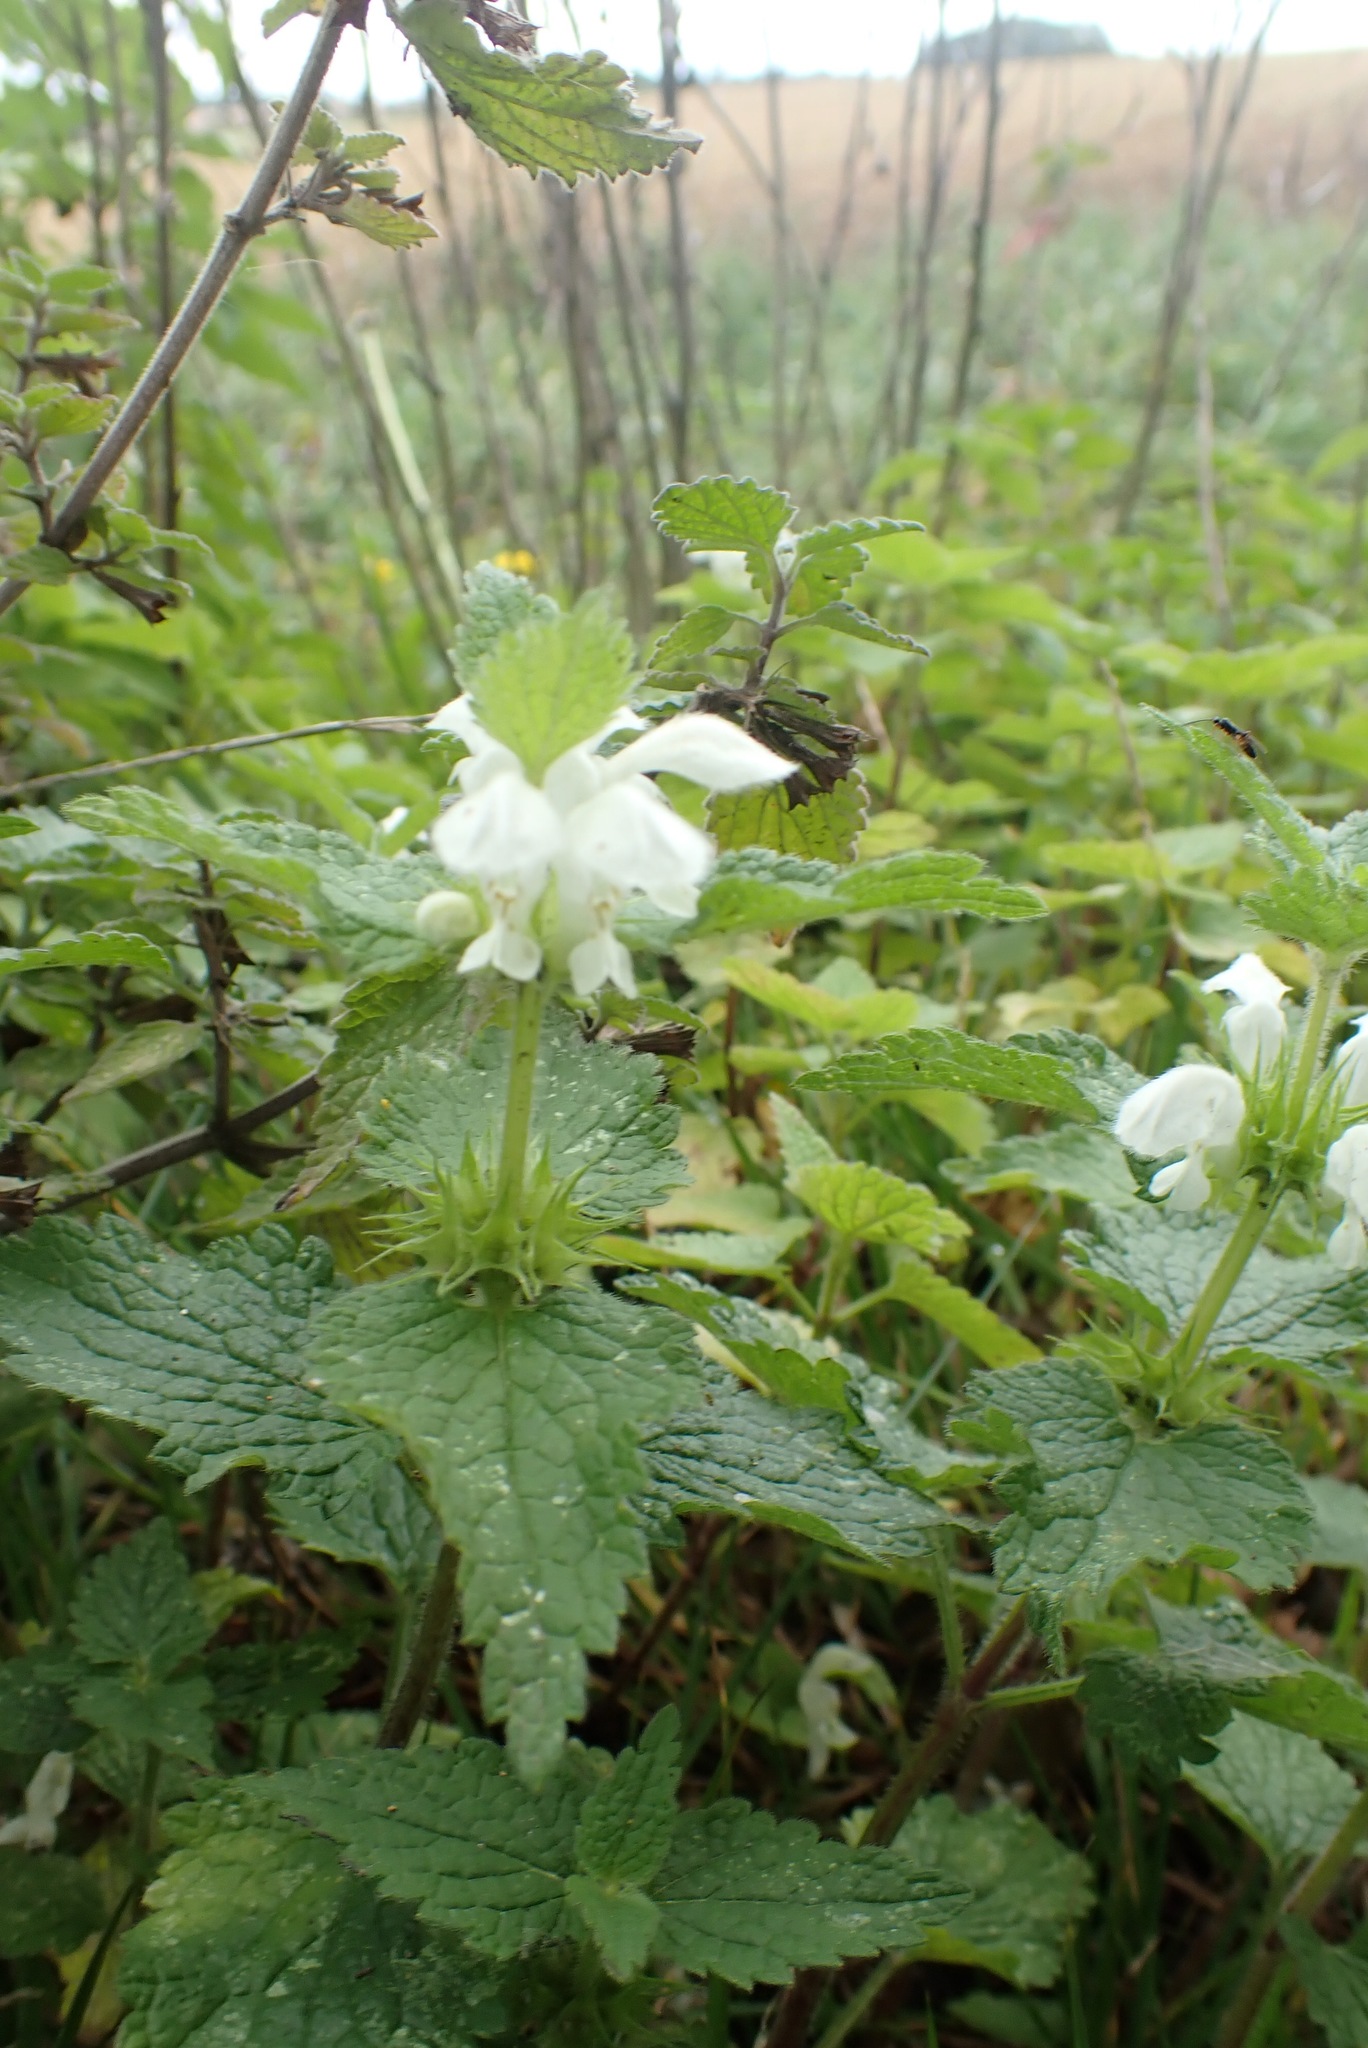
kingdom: Plantae
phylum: Tracheophyta
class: Magnoliopsida
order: Lamiales
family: Lamiaceae
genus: Lamium
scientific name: Lamium album
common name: White dead-nettle
